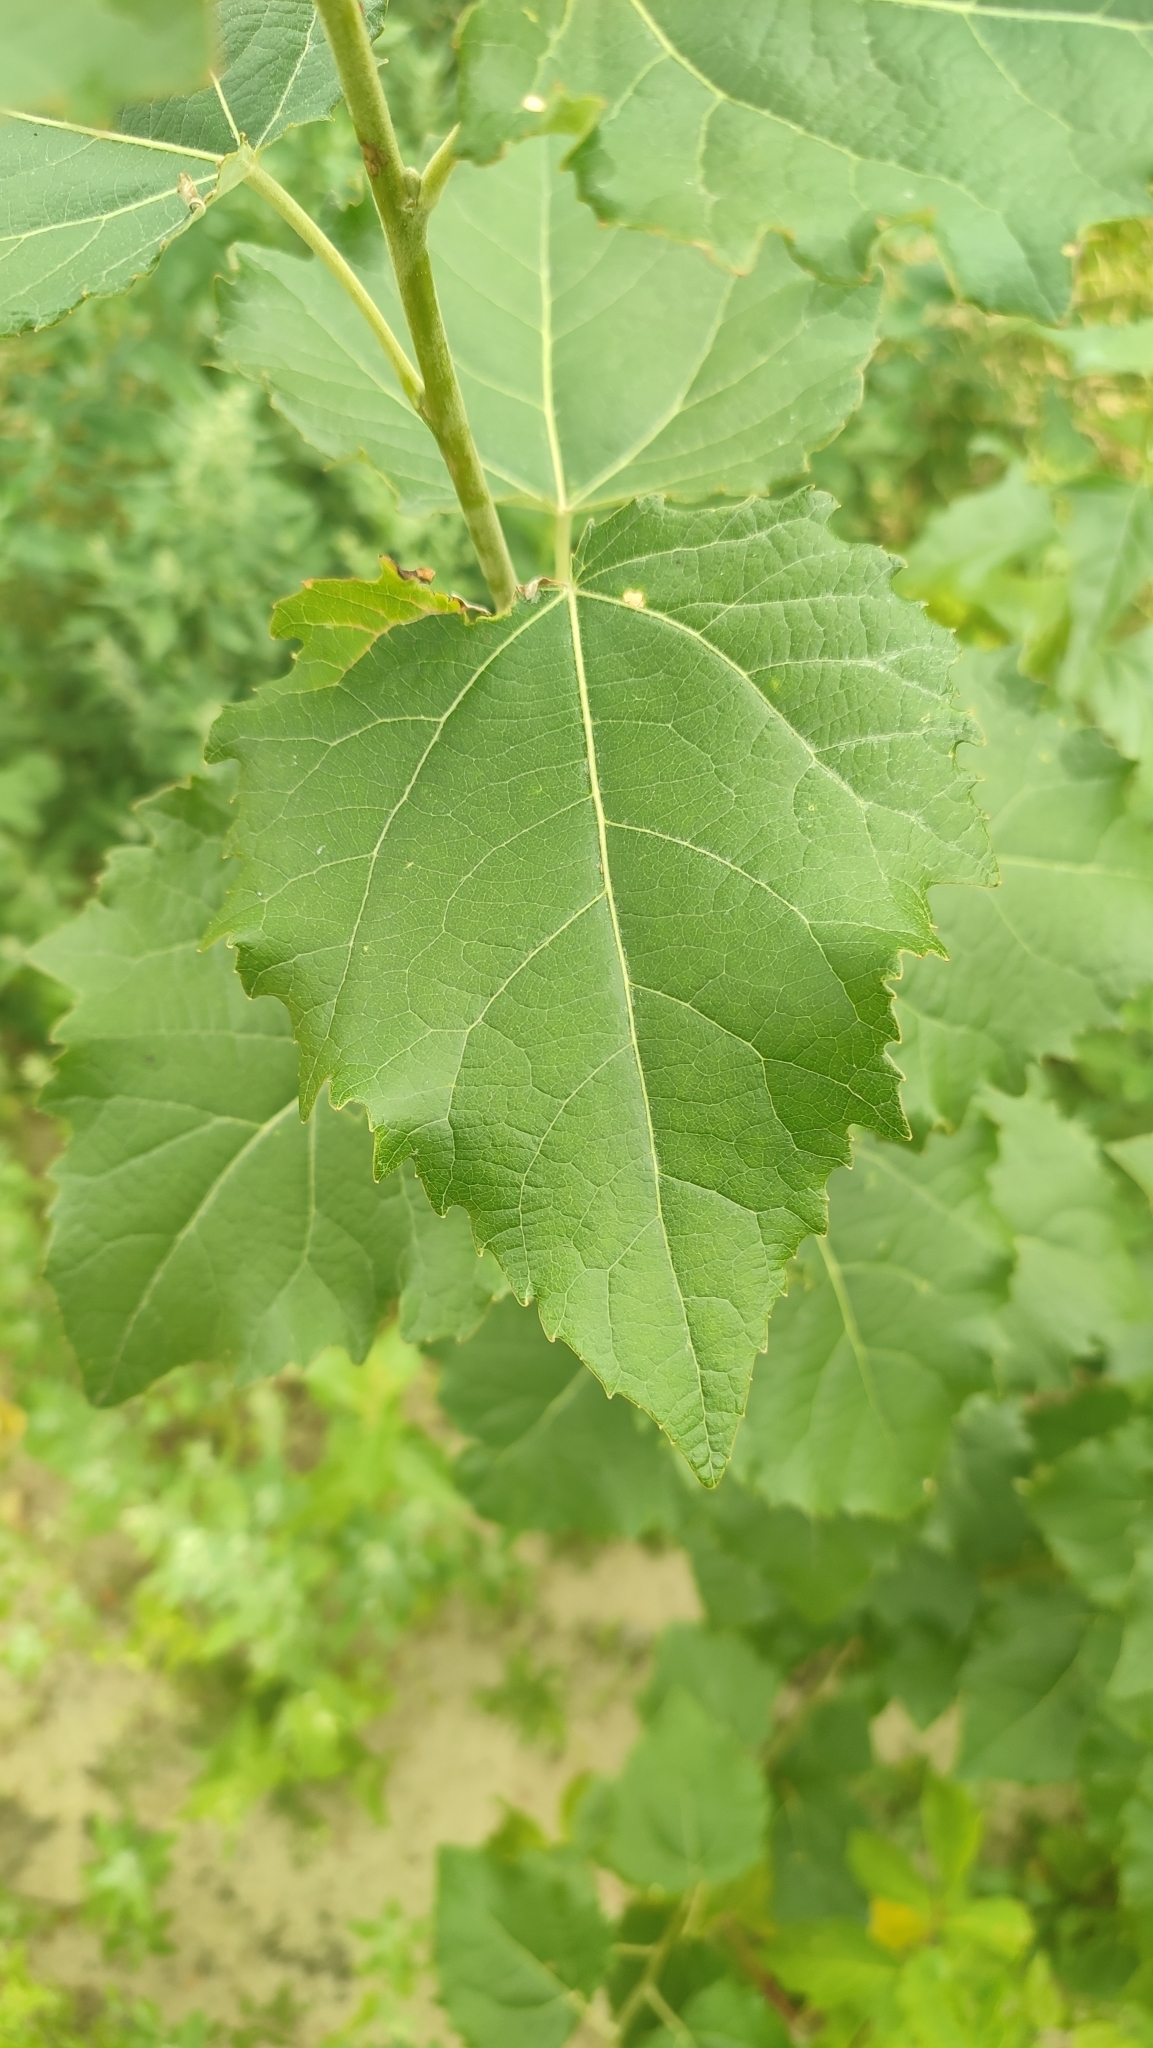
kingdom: Plantae
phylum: Tracheophyta
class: Magnoliopsida
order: Malpighiales
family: Salicaceae
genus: Populus
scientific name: Populus tremula
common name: European aspen
